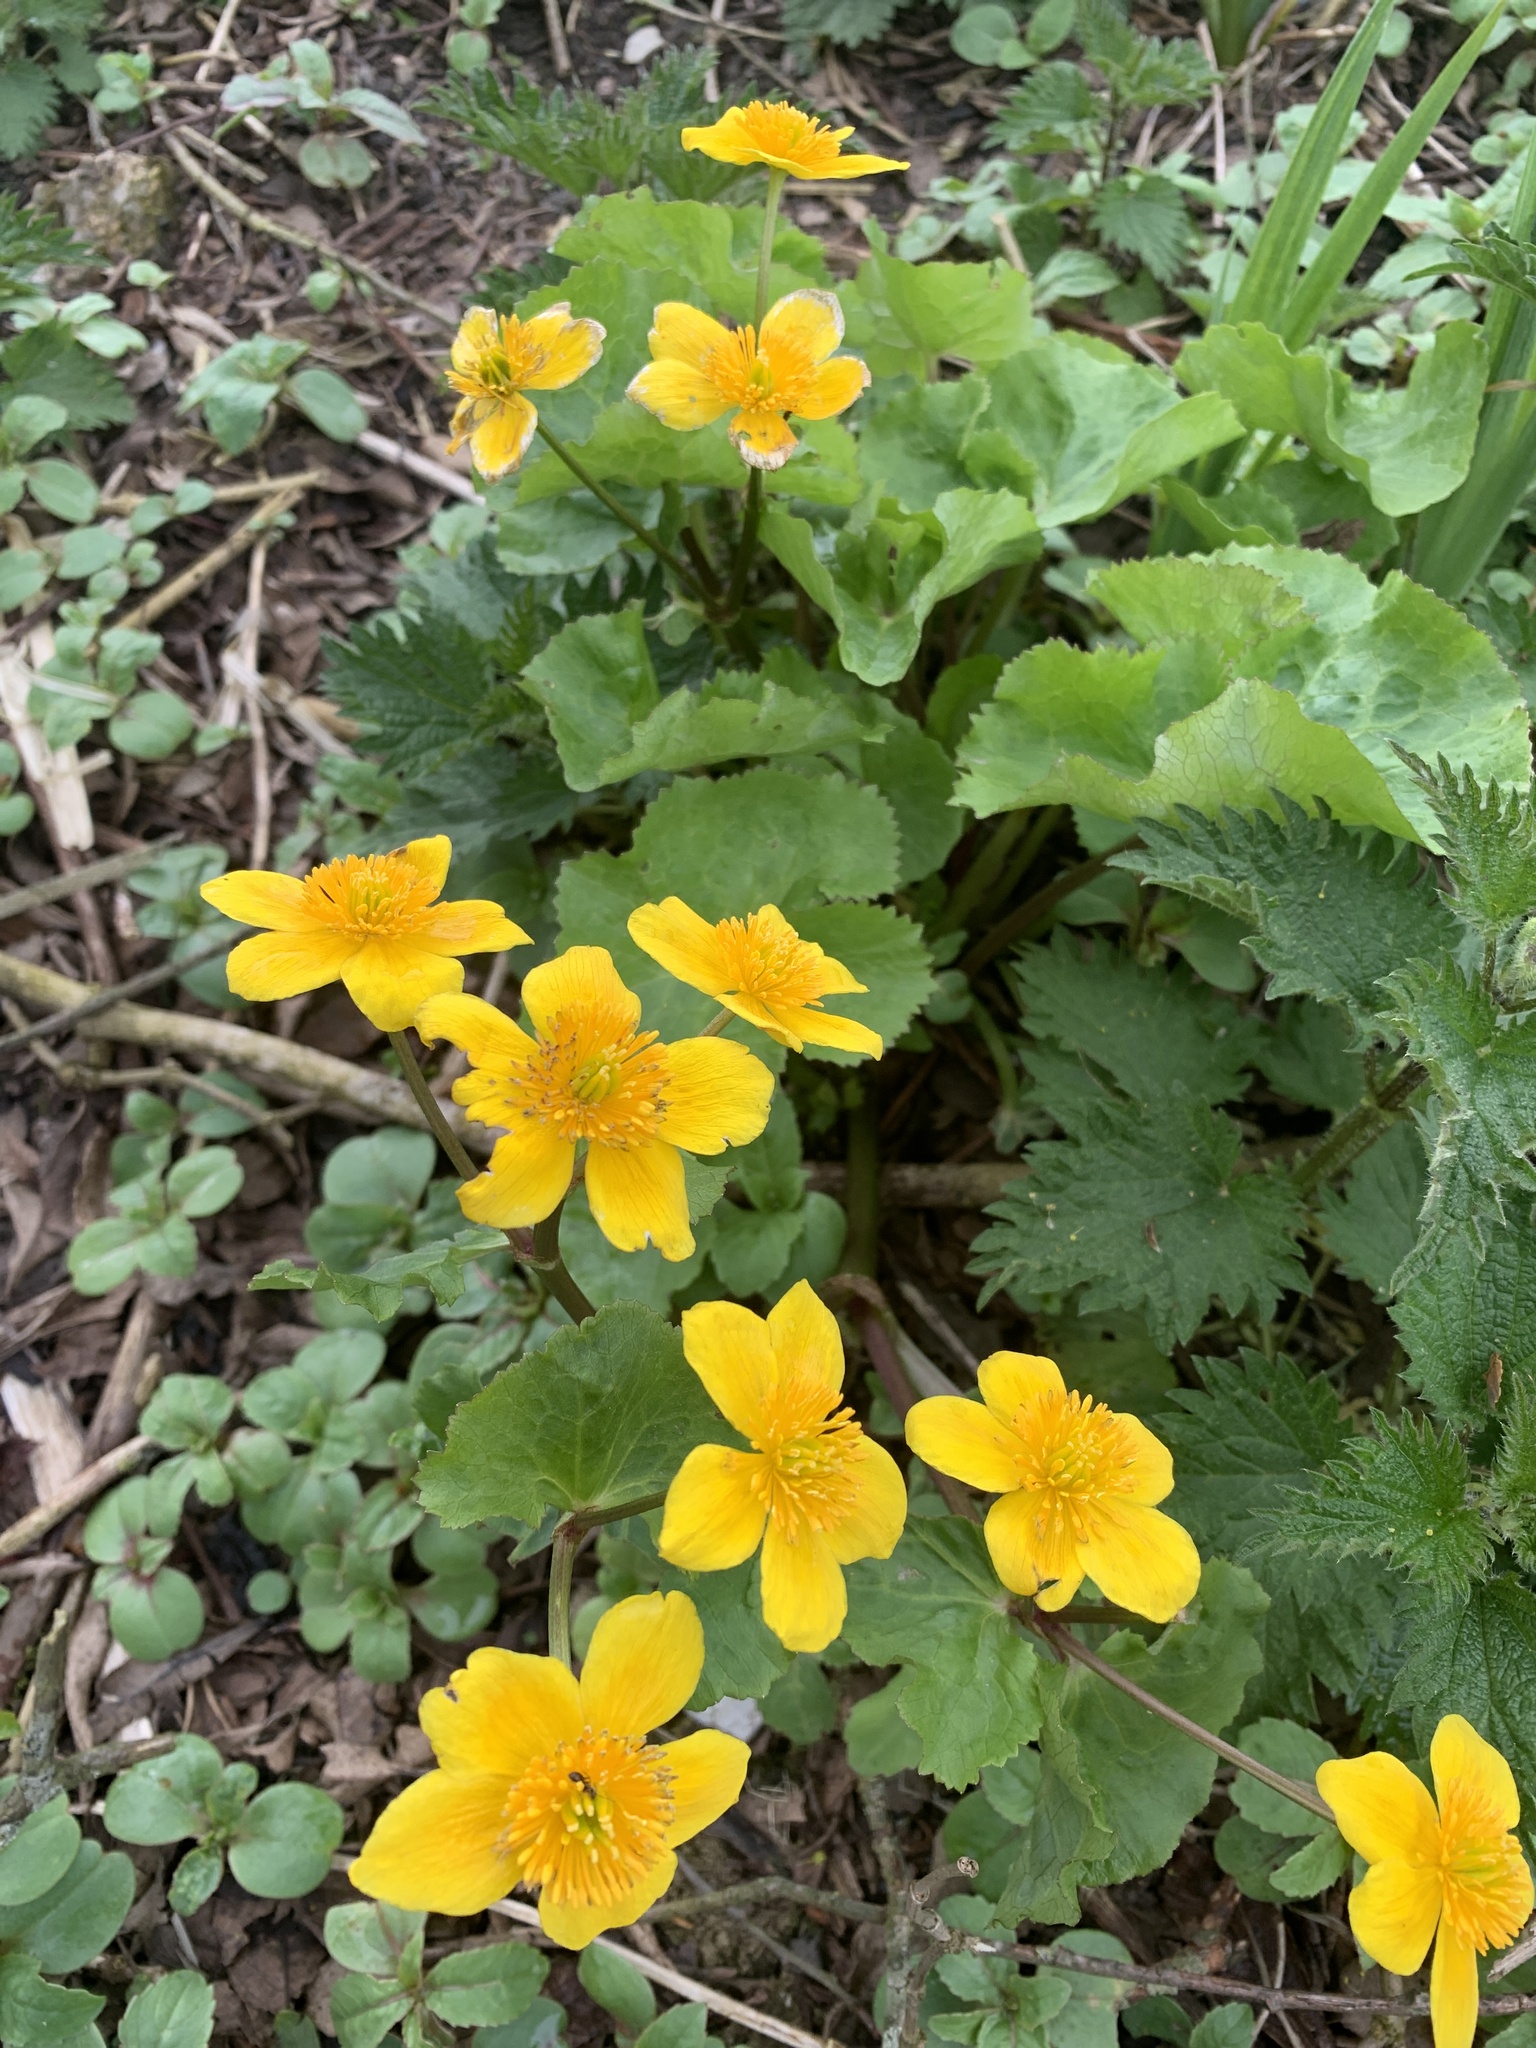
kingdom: Plantae
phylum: Tracheophyta
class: Magnoliopsida
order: Ranunculales
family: Ranunculaceae
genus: Caltha
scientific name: Caltha palustris
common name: Marsh marigold
